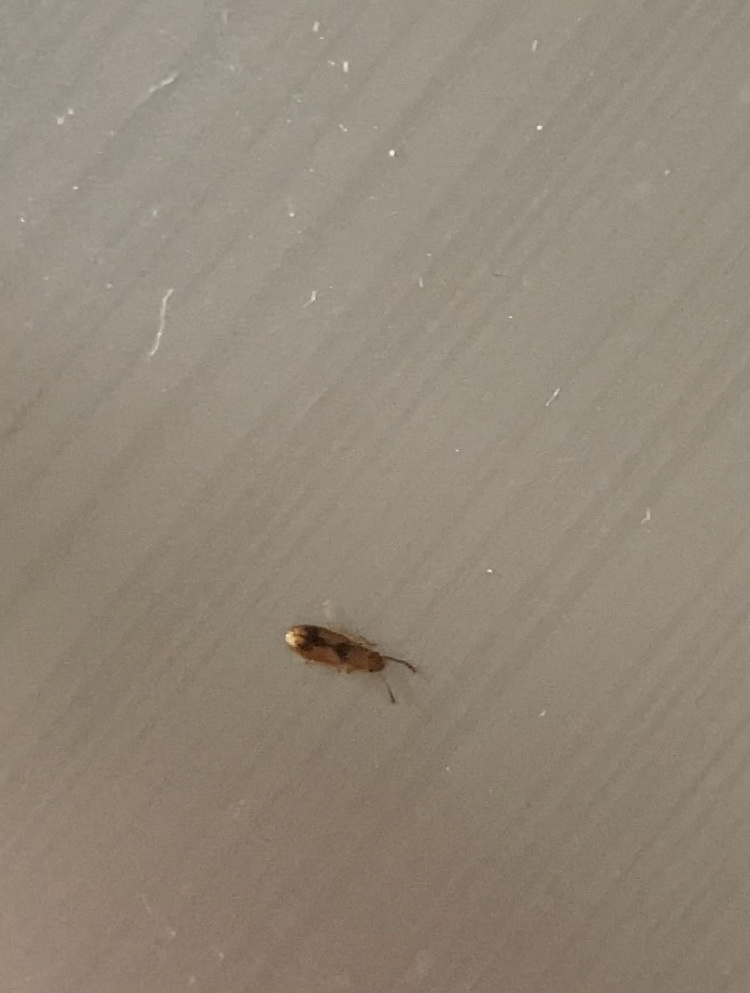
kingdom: Animalia
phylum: Arthropoda
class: Insecta
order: Coleoptera
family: Silvanidae
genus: Cryptamorpha
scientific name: Cryptamorpha desjardinsi
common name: Cryptamorpha
